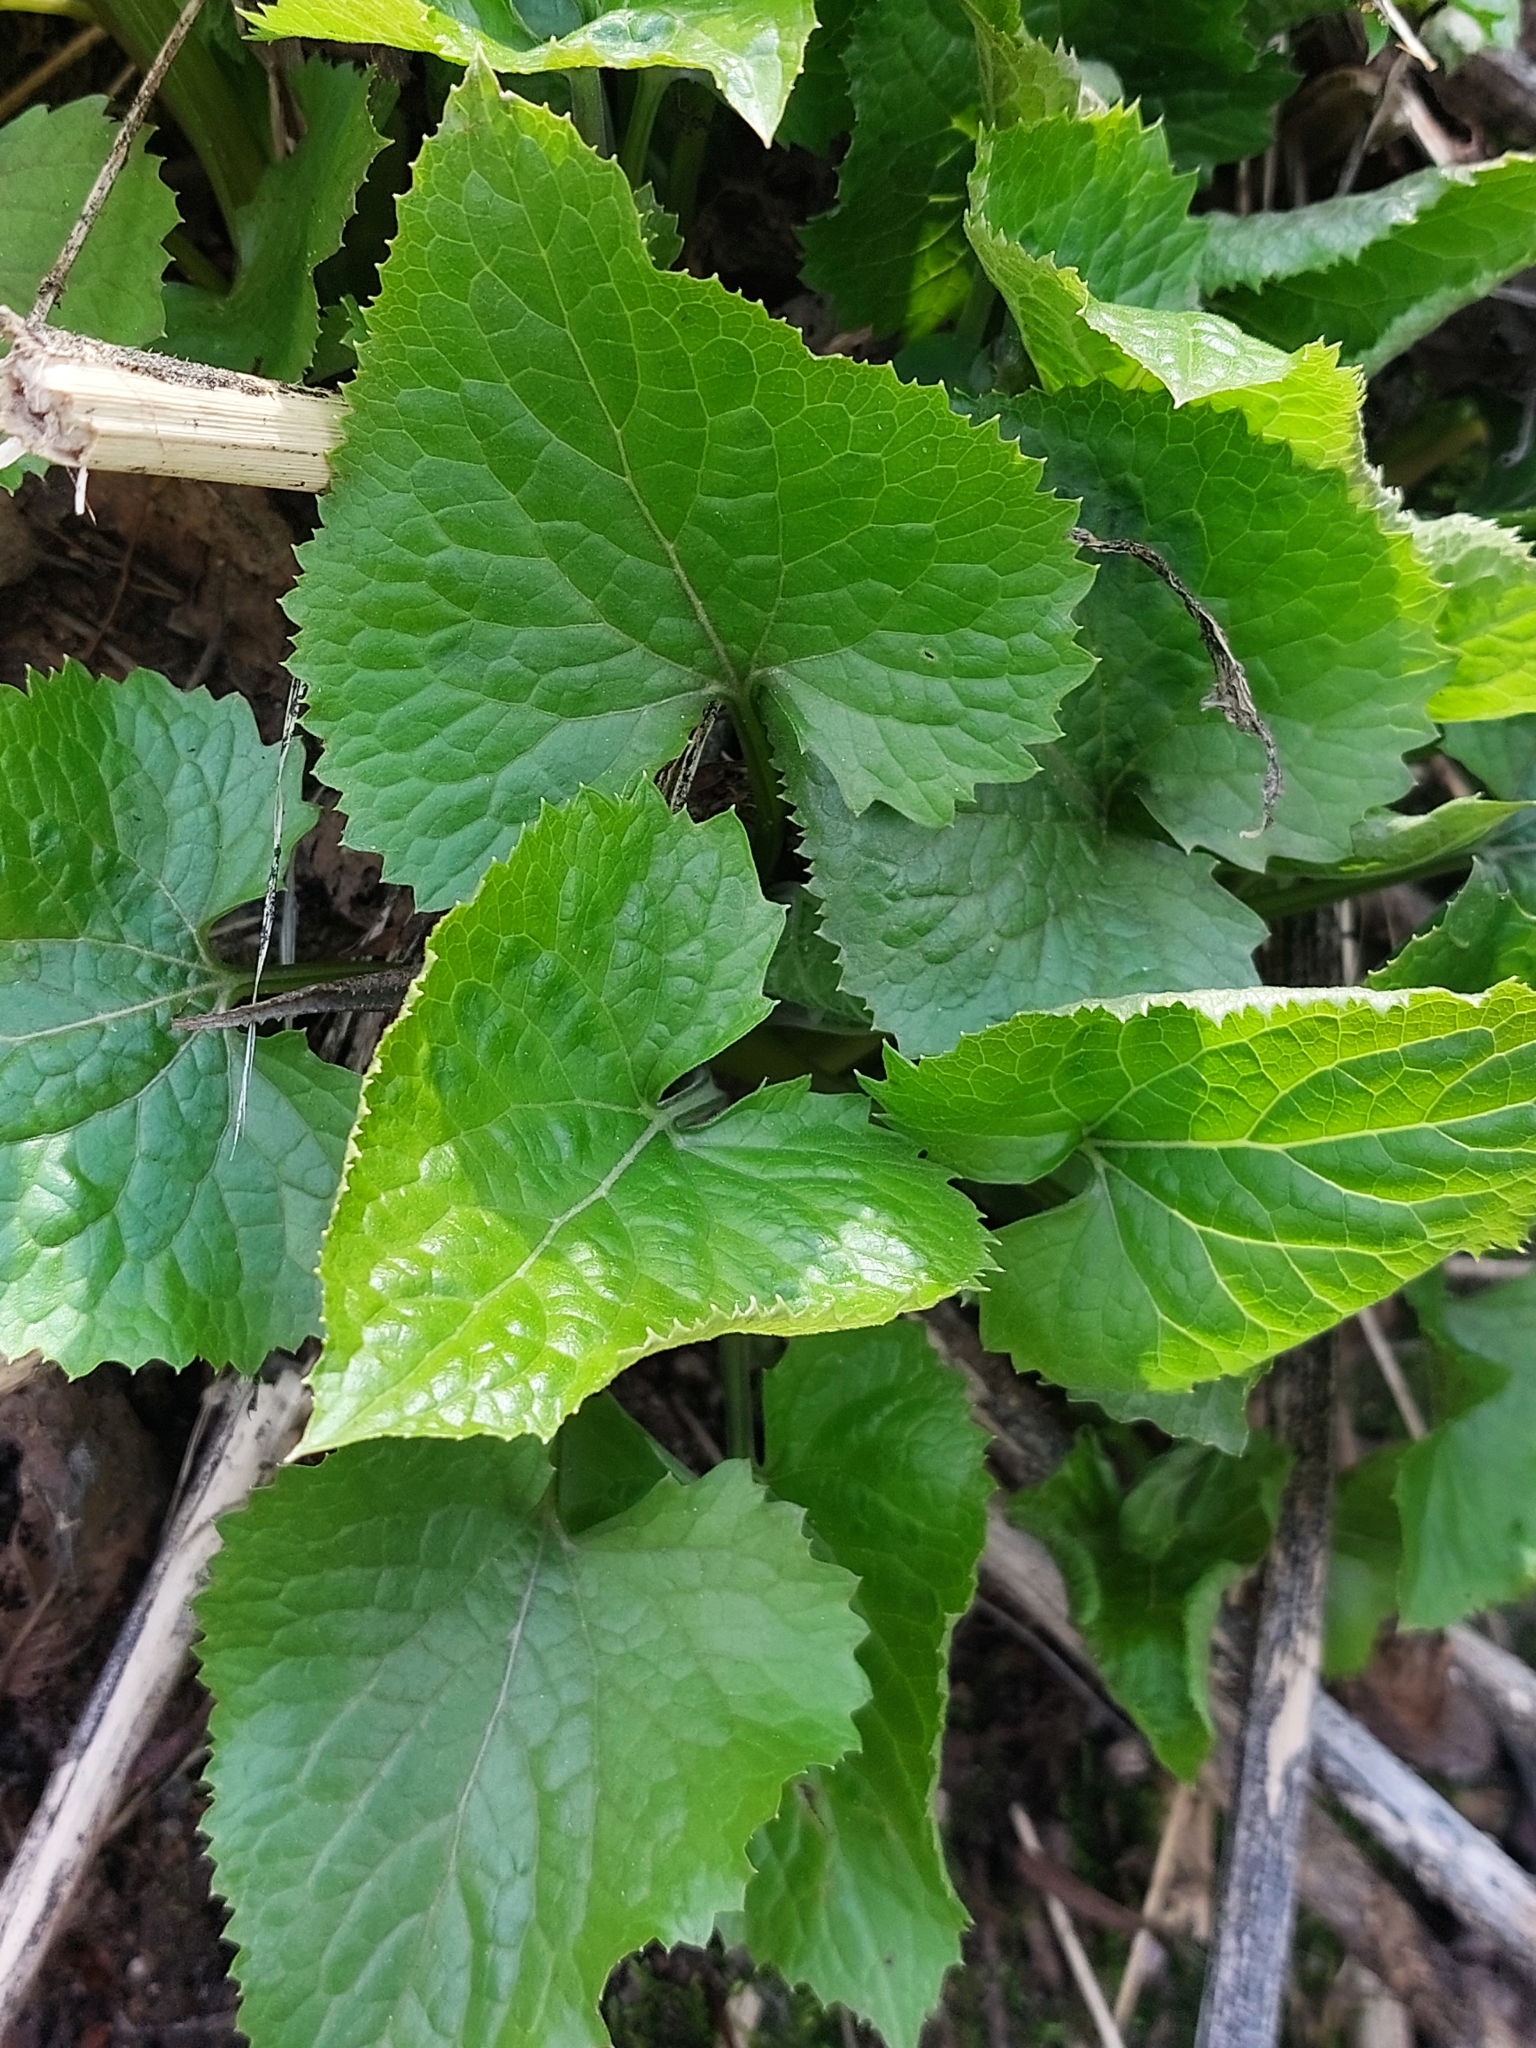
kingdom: Plantae
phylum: Tracheophyta
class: Magnoliopsida
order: Brassicales
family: Brassicaceae
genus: Lunaria
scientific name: Lunaria rediviva
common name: Perennial honesty
